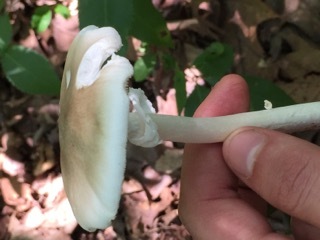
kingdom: Fungi
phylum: Basidiomycota
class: Agaricomycetes
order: Agaricales
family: Amanitaceae
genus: Amanita
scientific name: Amanita bisporigera
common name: Eastern north american destroying angel
